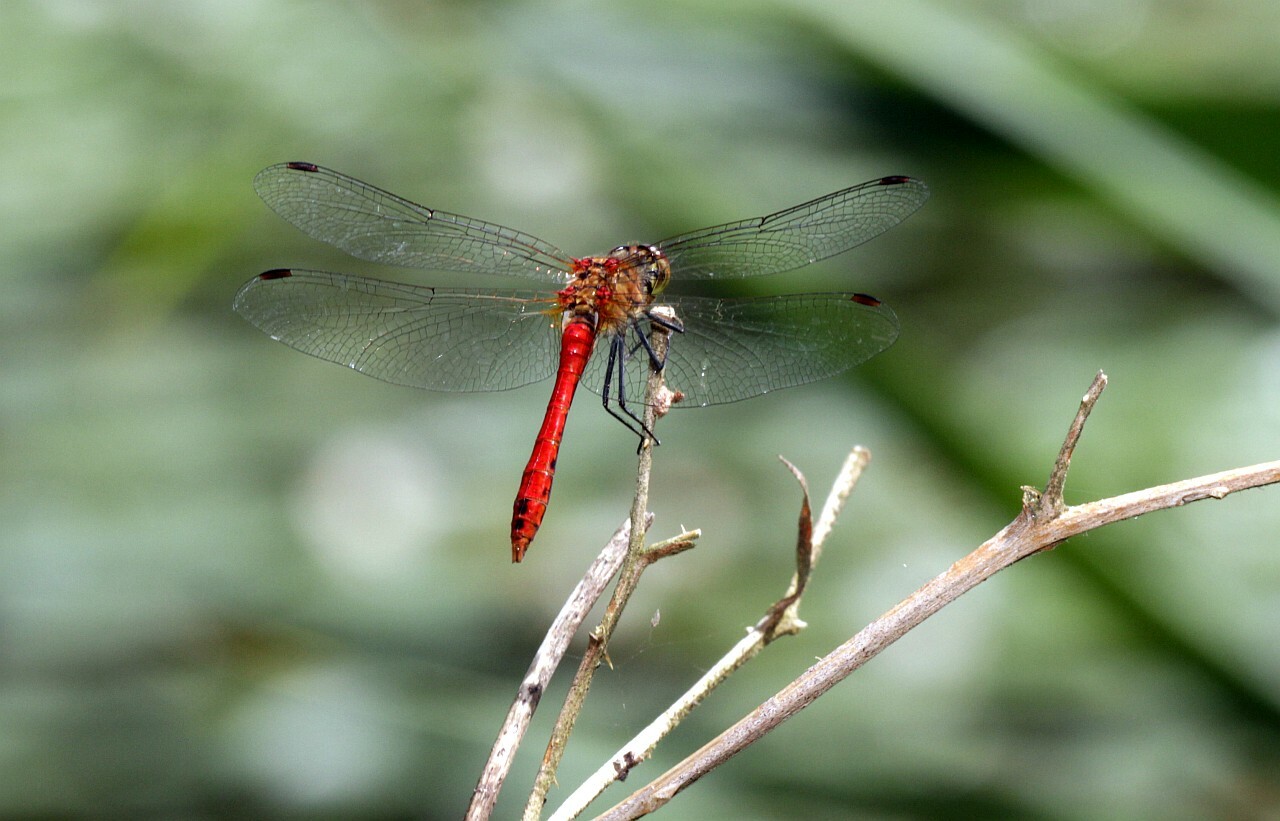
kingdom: Animalia
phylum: Arthropoda
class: Insecta
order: Odonata
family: Libellulidae
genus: Sympetrum
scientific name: Sympetrum sanguineum
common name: Ruddy darter
